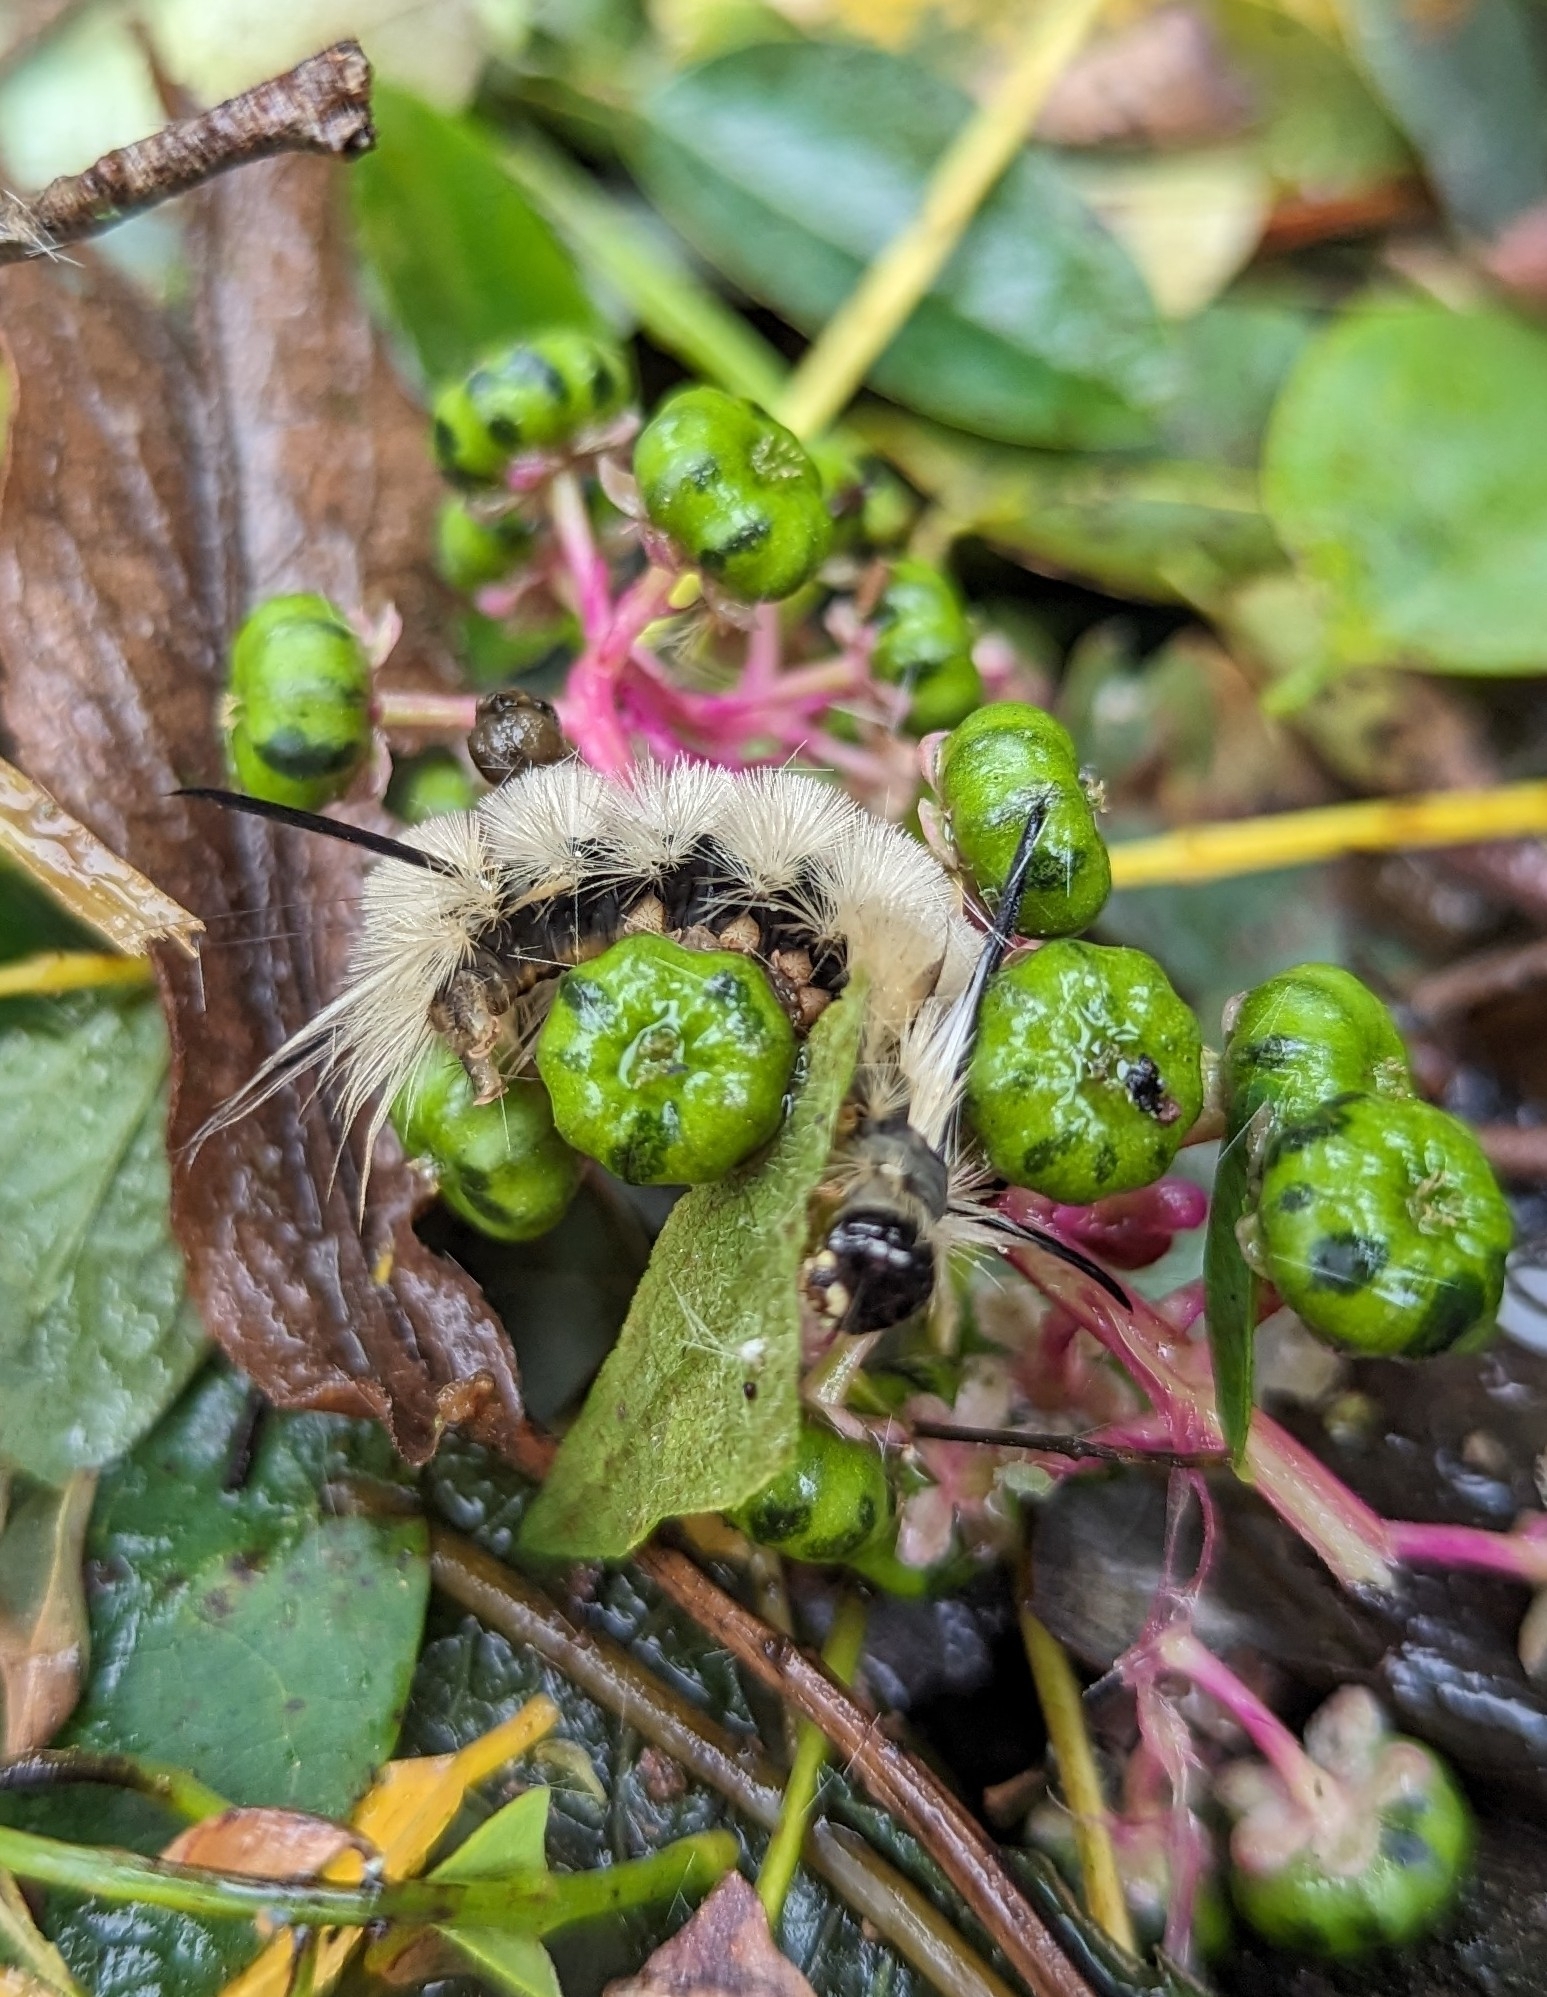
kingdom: Animalia
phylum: Arthropoda
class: Insecta
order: Lepidoptera
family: Erebidae
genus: Halysidota
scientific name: Halysidota tessellaris
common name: Banded tussock moth
